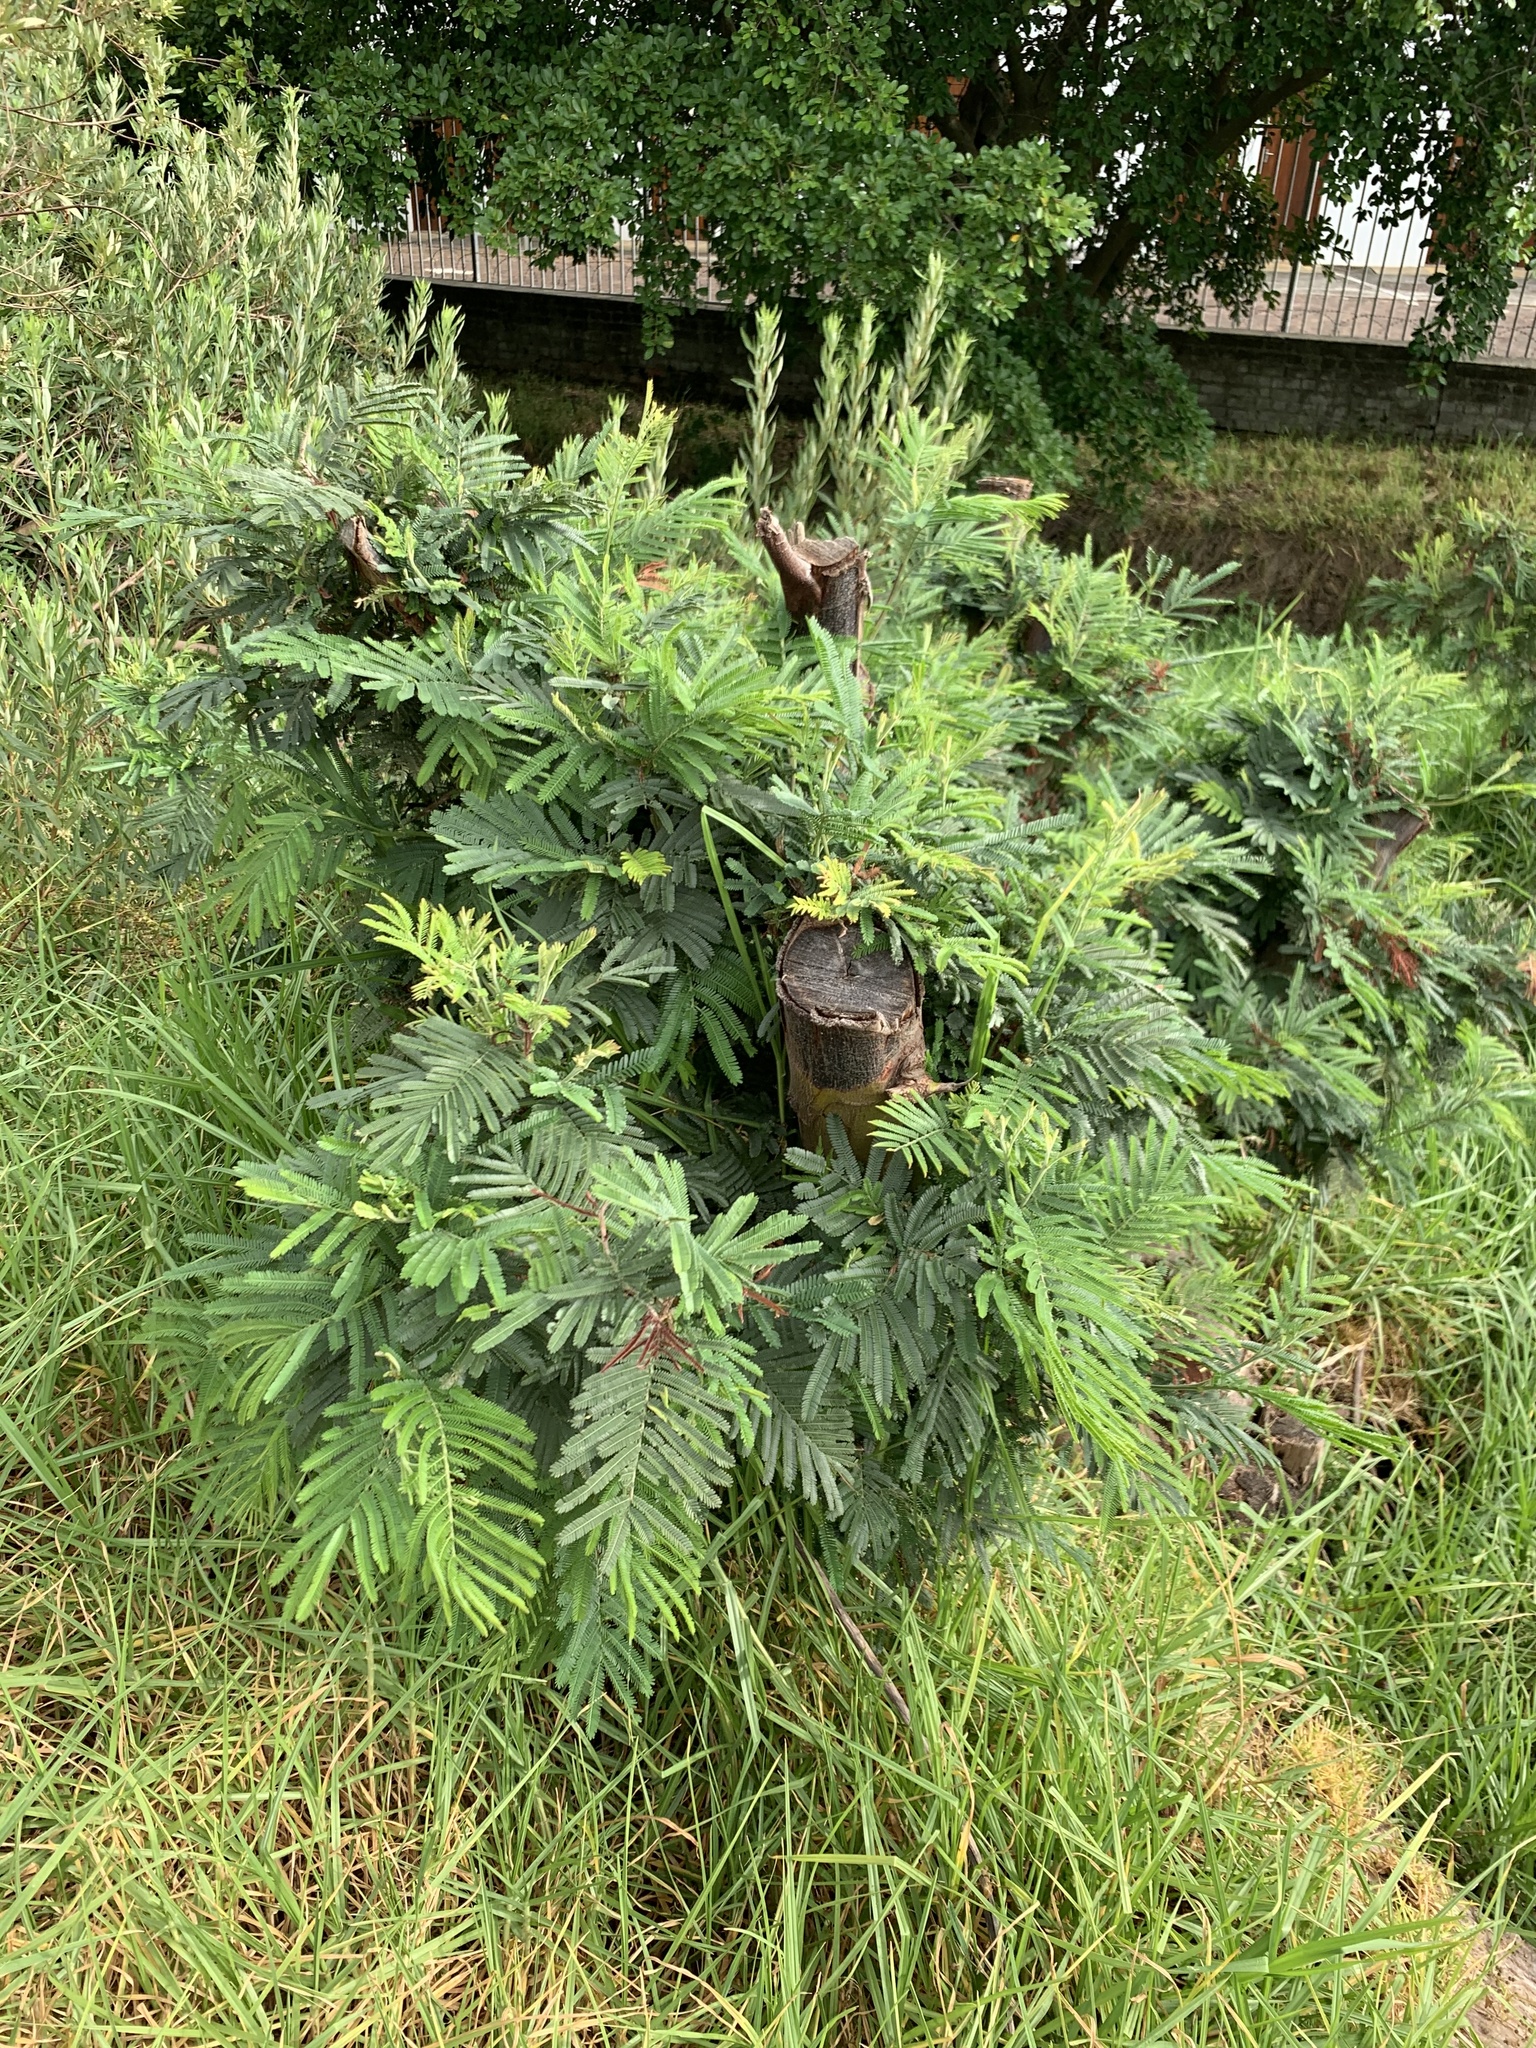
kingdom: Plantae
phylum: Tracheophyta
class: Magnoliopsida
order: Fabales
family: Fabaceae
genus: Acacia
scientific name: Acacia mearnsii
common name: Black wattle
